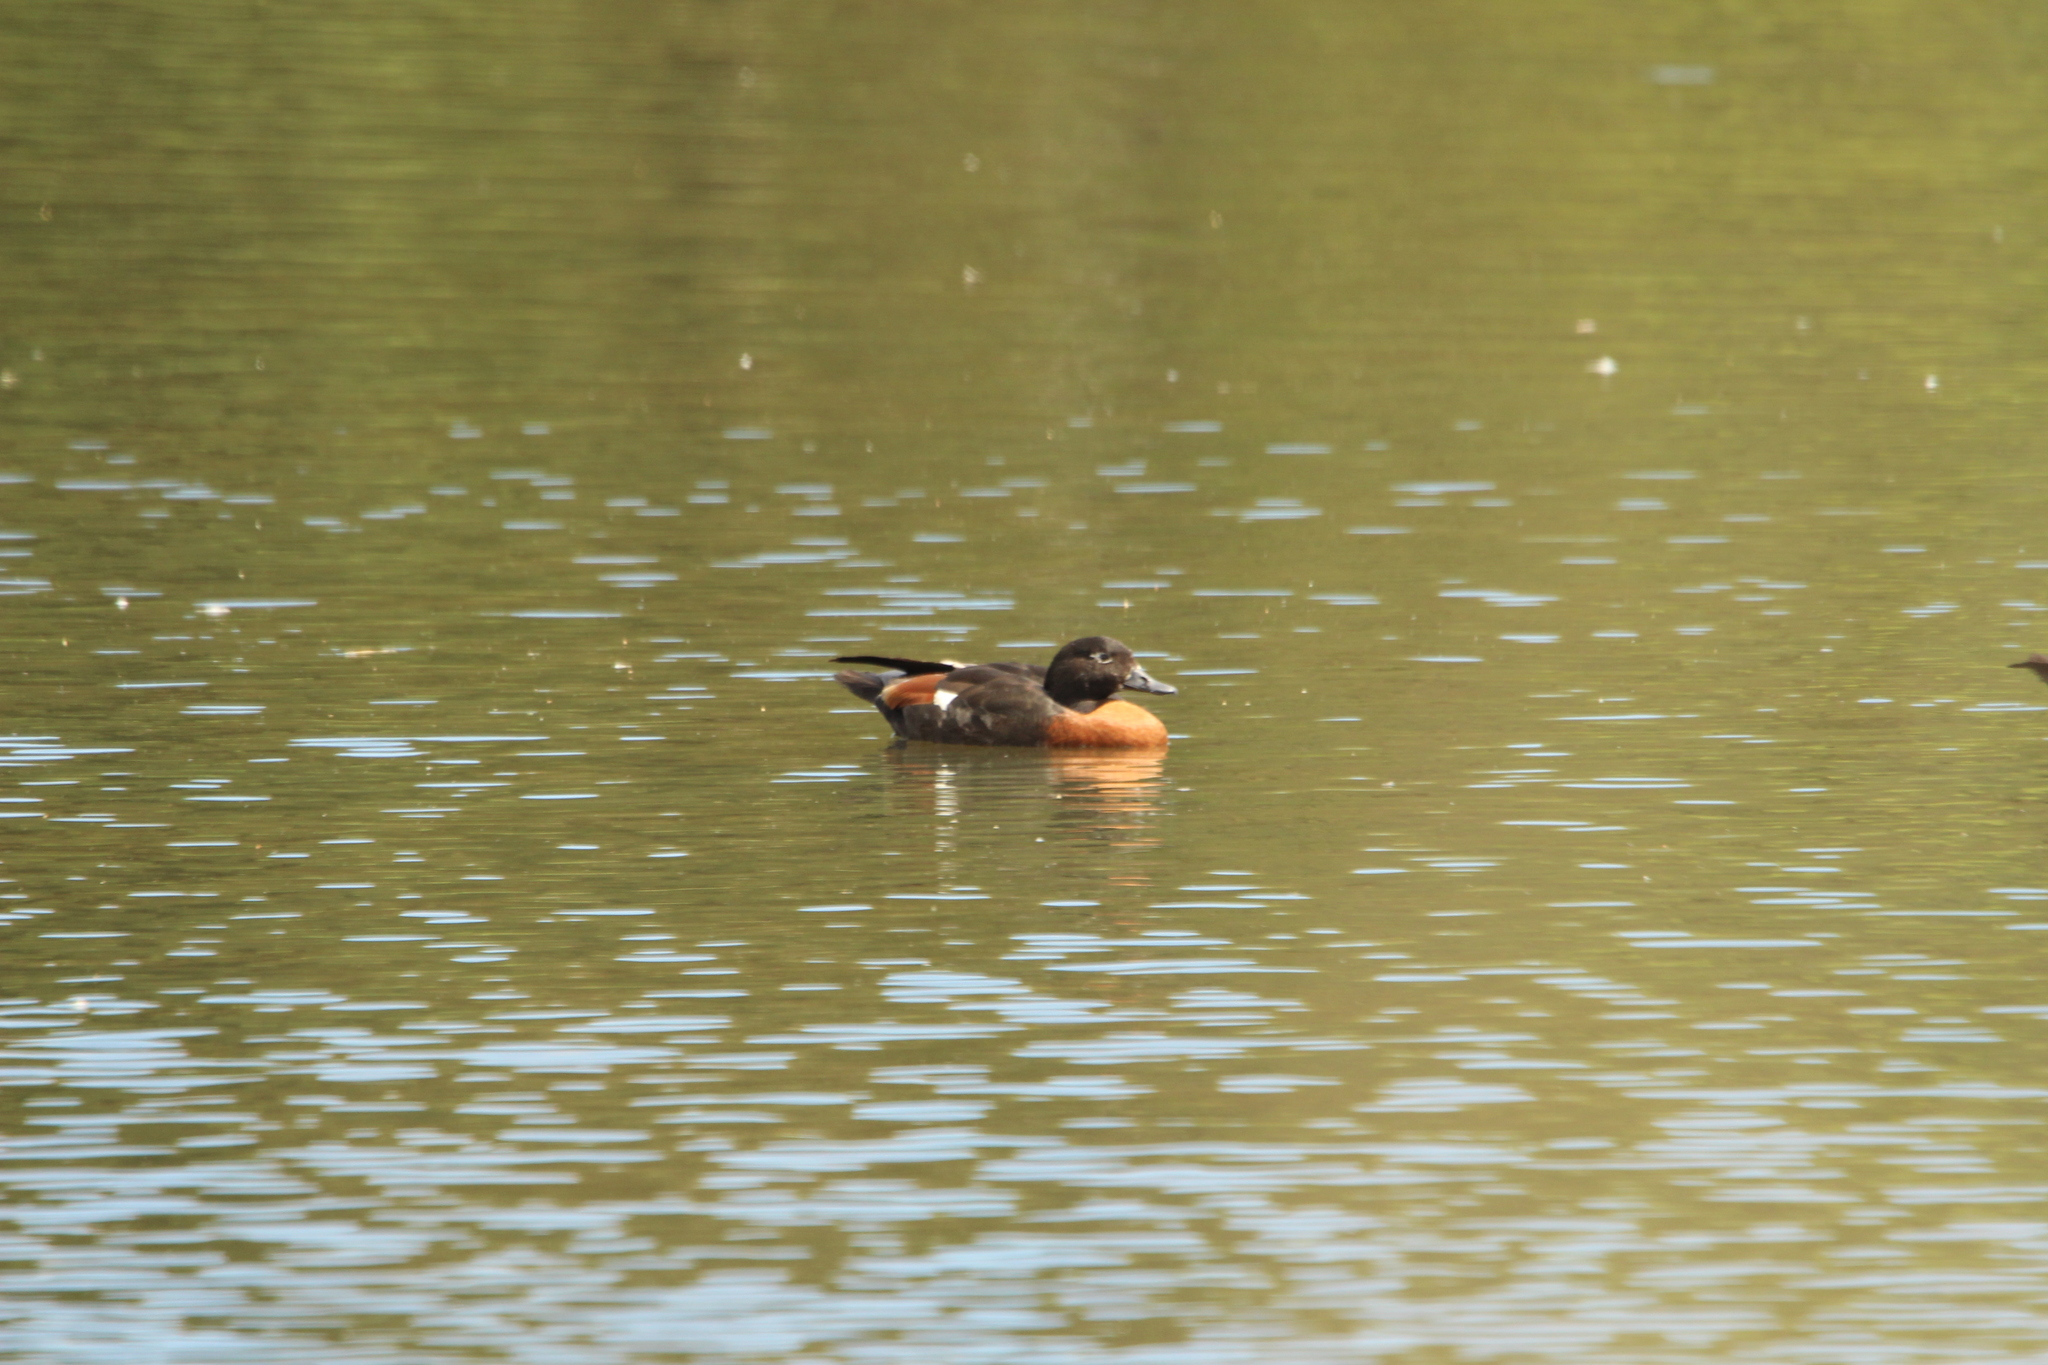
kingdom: Animalia
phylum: Chordata
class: Aves
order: Anseriformes
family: Anatidae
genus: Tadorna
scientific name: Tadorna tadornoides
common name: Australian shelduck
